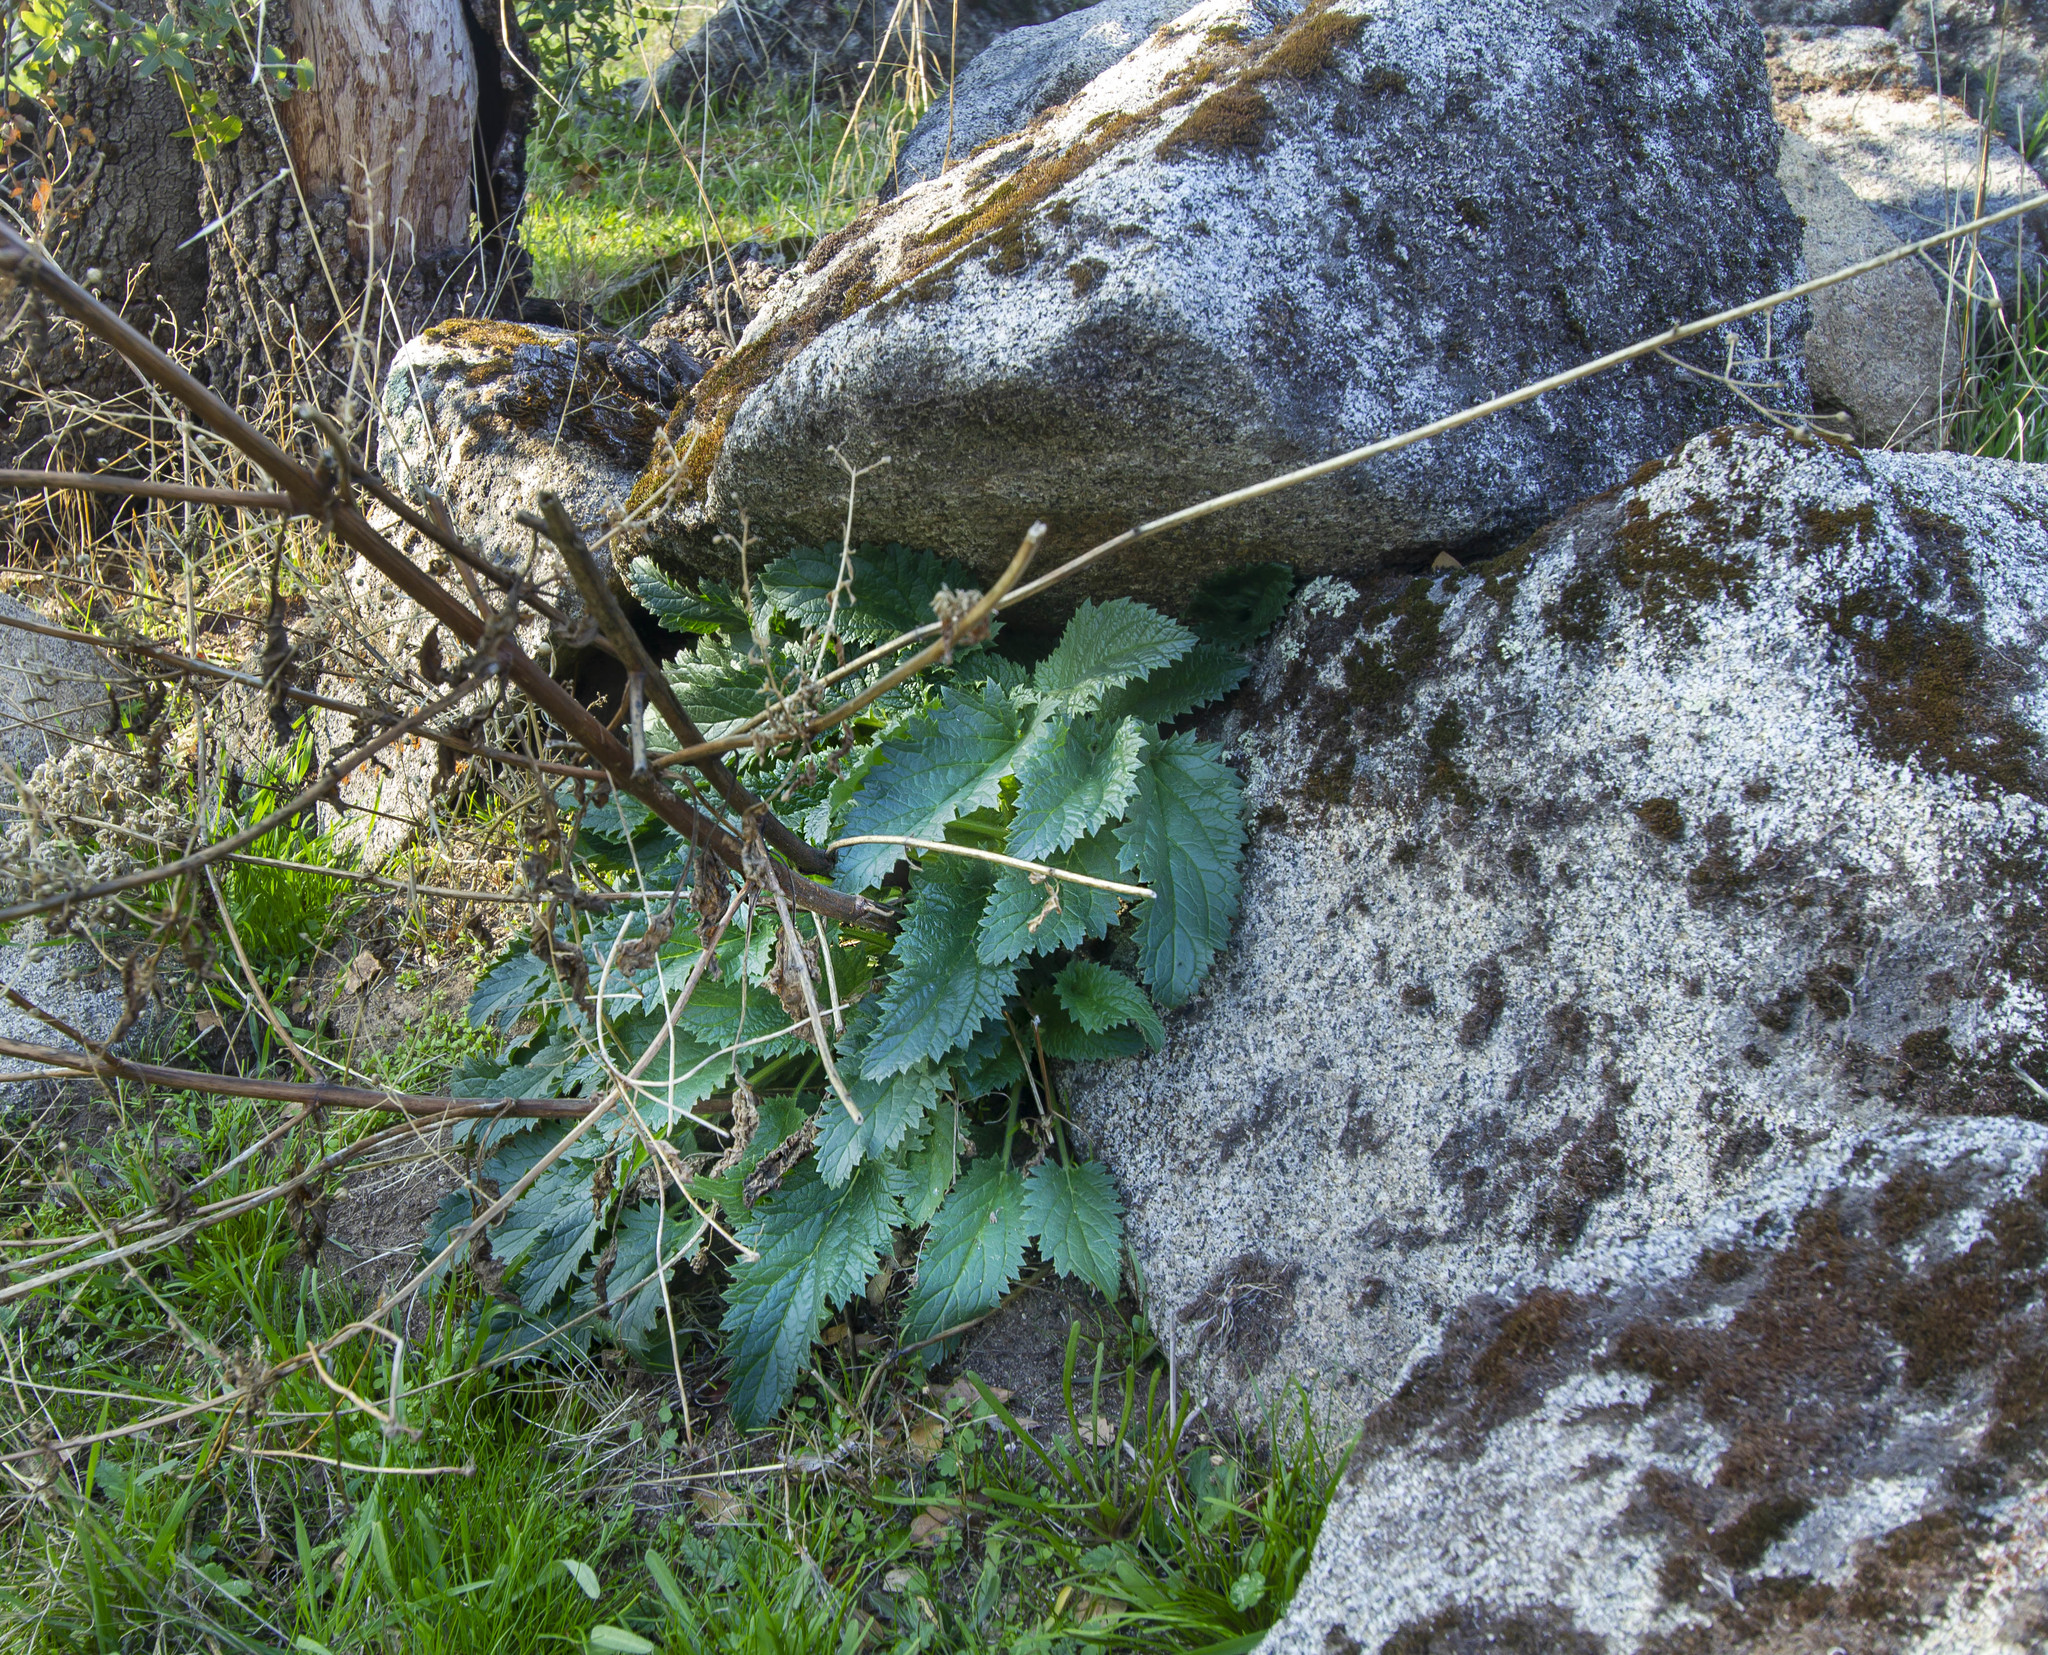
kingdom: Plantae
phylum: Tracheophyta
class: Magnoliopsida
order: Lamiales
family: Scrophulariaceae
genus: Scrophularia
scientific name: Scrophularia californica
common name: California figwort
